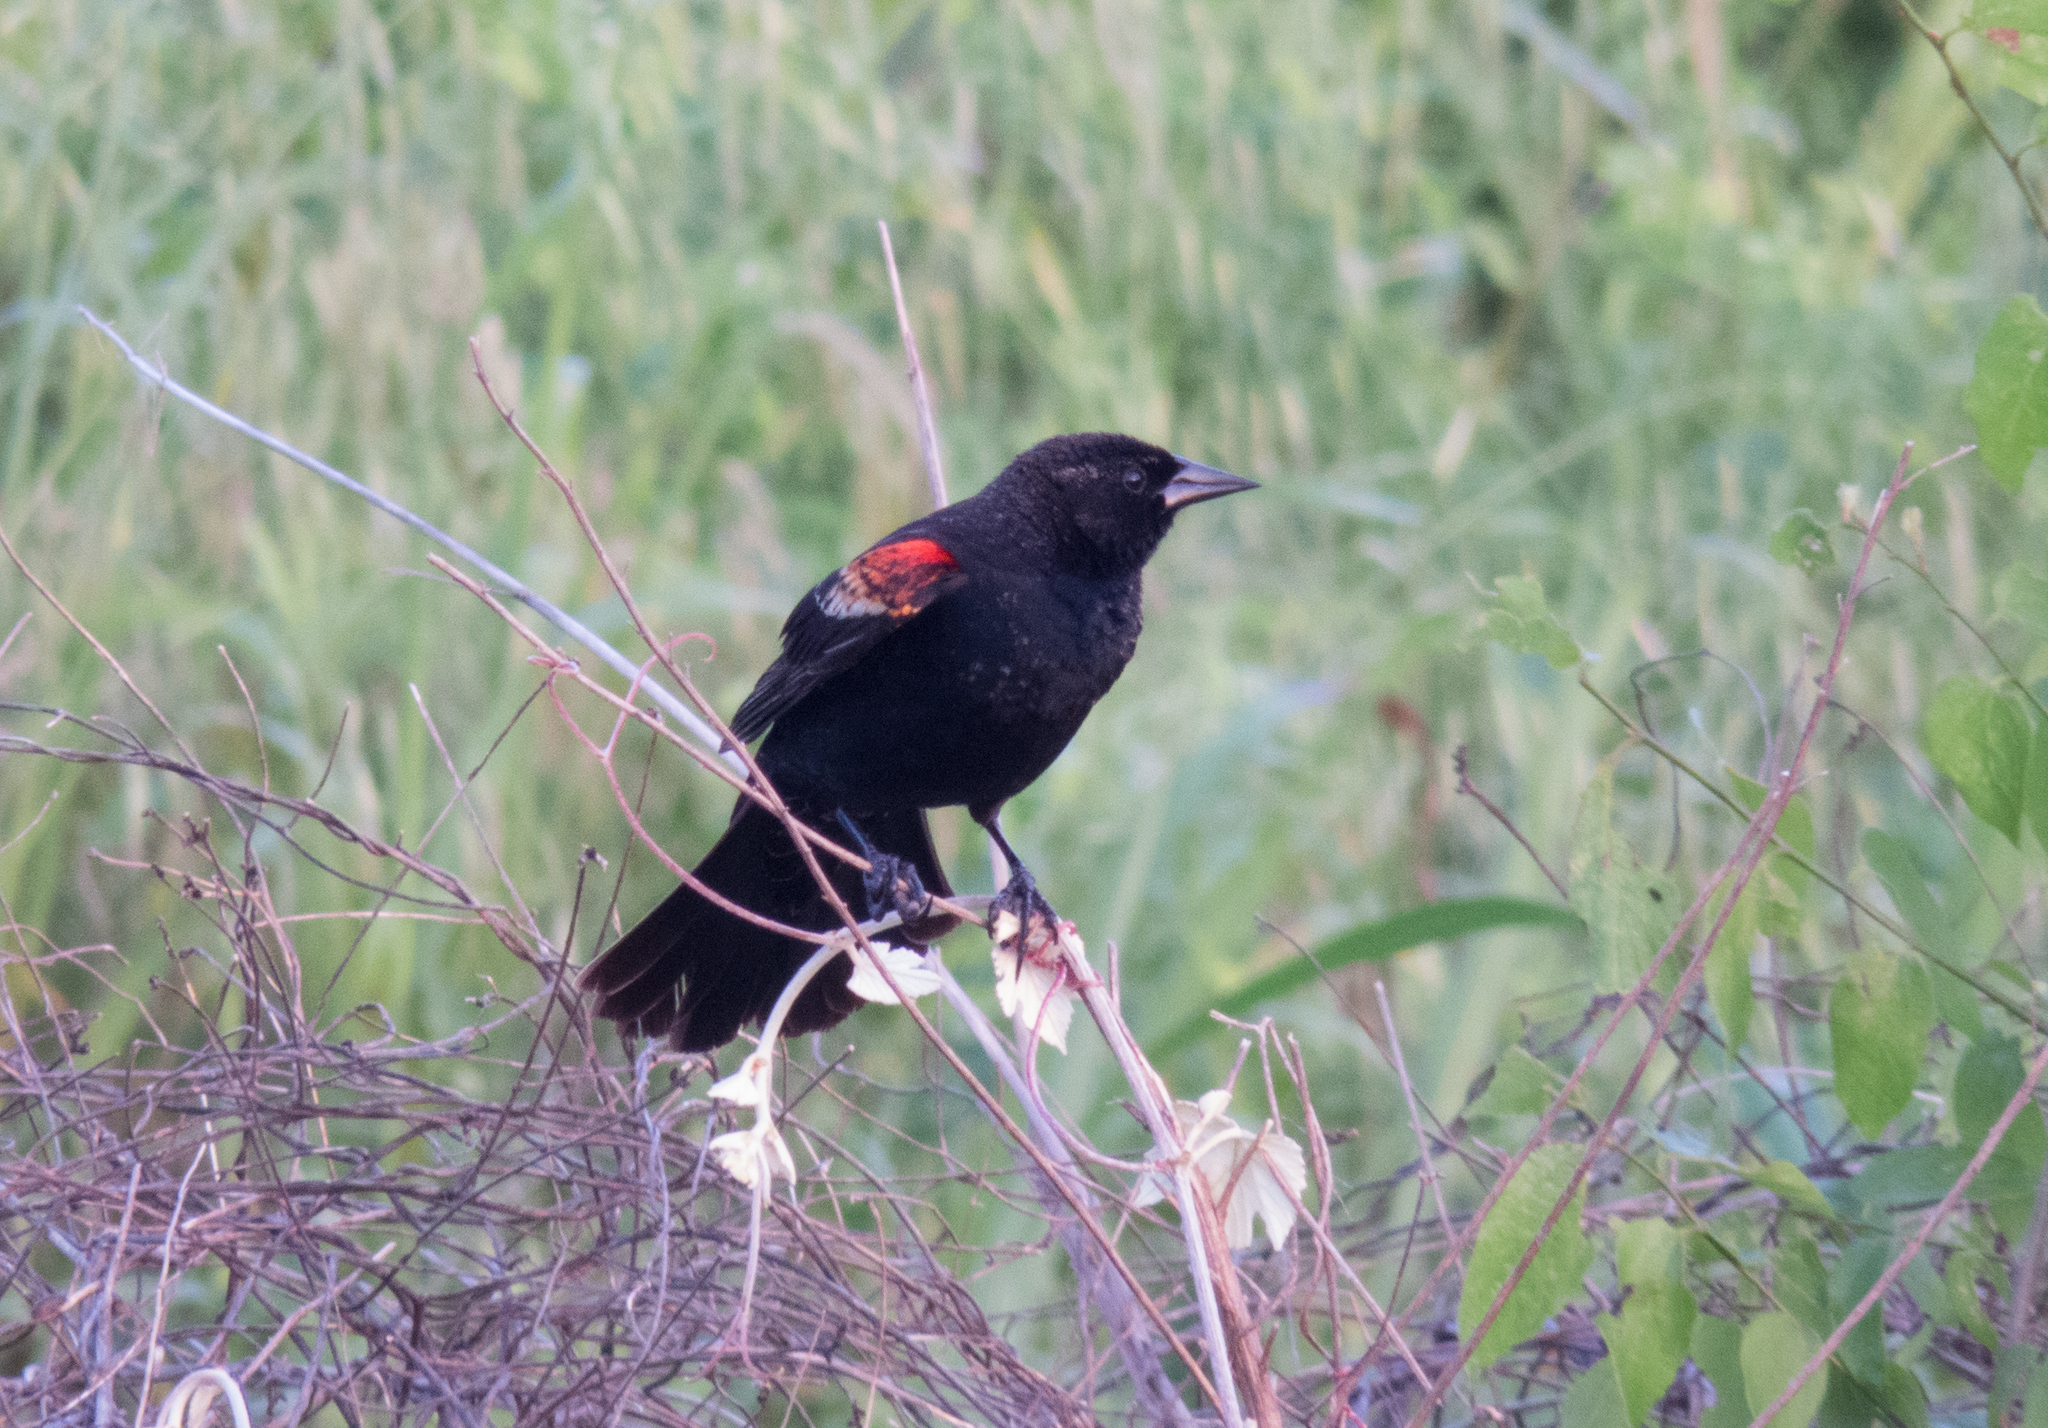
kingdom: Animalia
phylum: Chordata
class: Aves
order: Passeriformes
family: Icteridae
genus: Agelaius
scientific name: Agelaius phoeniceus
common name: Red-winged blackbird
